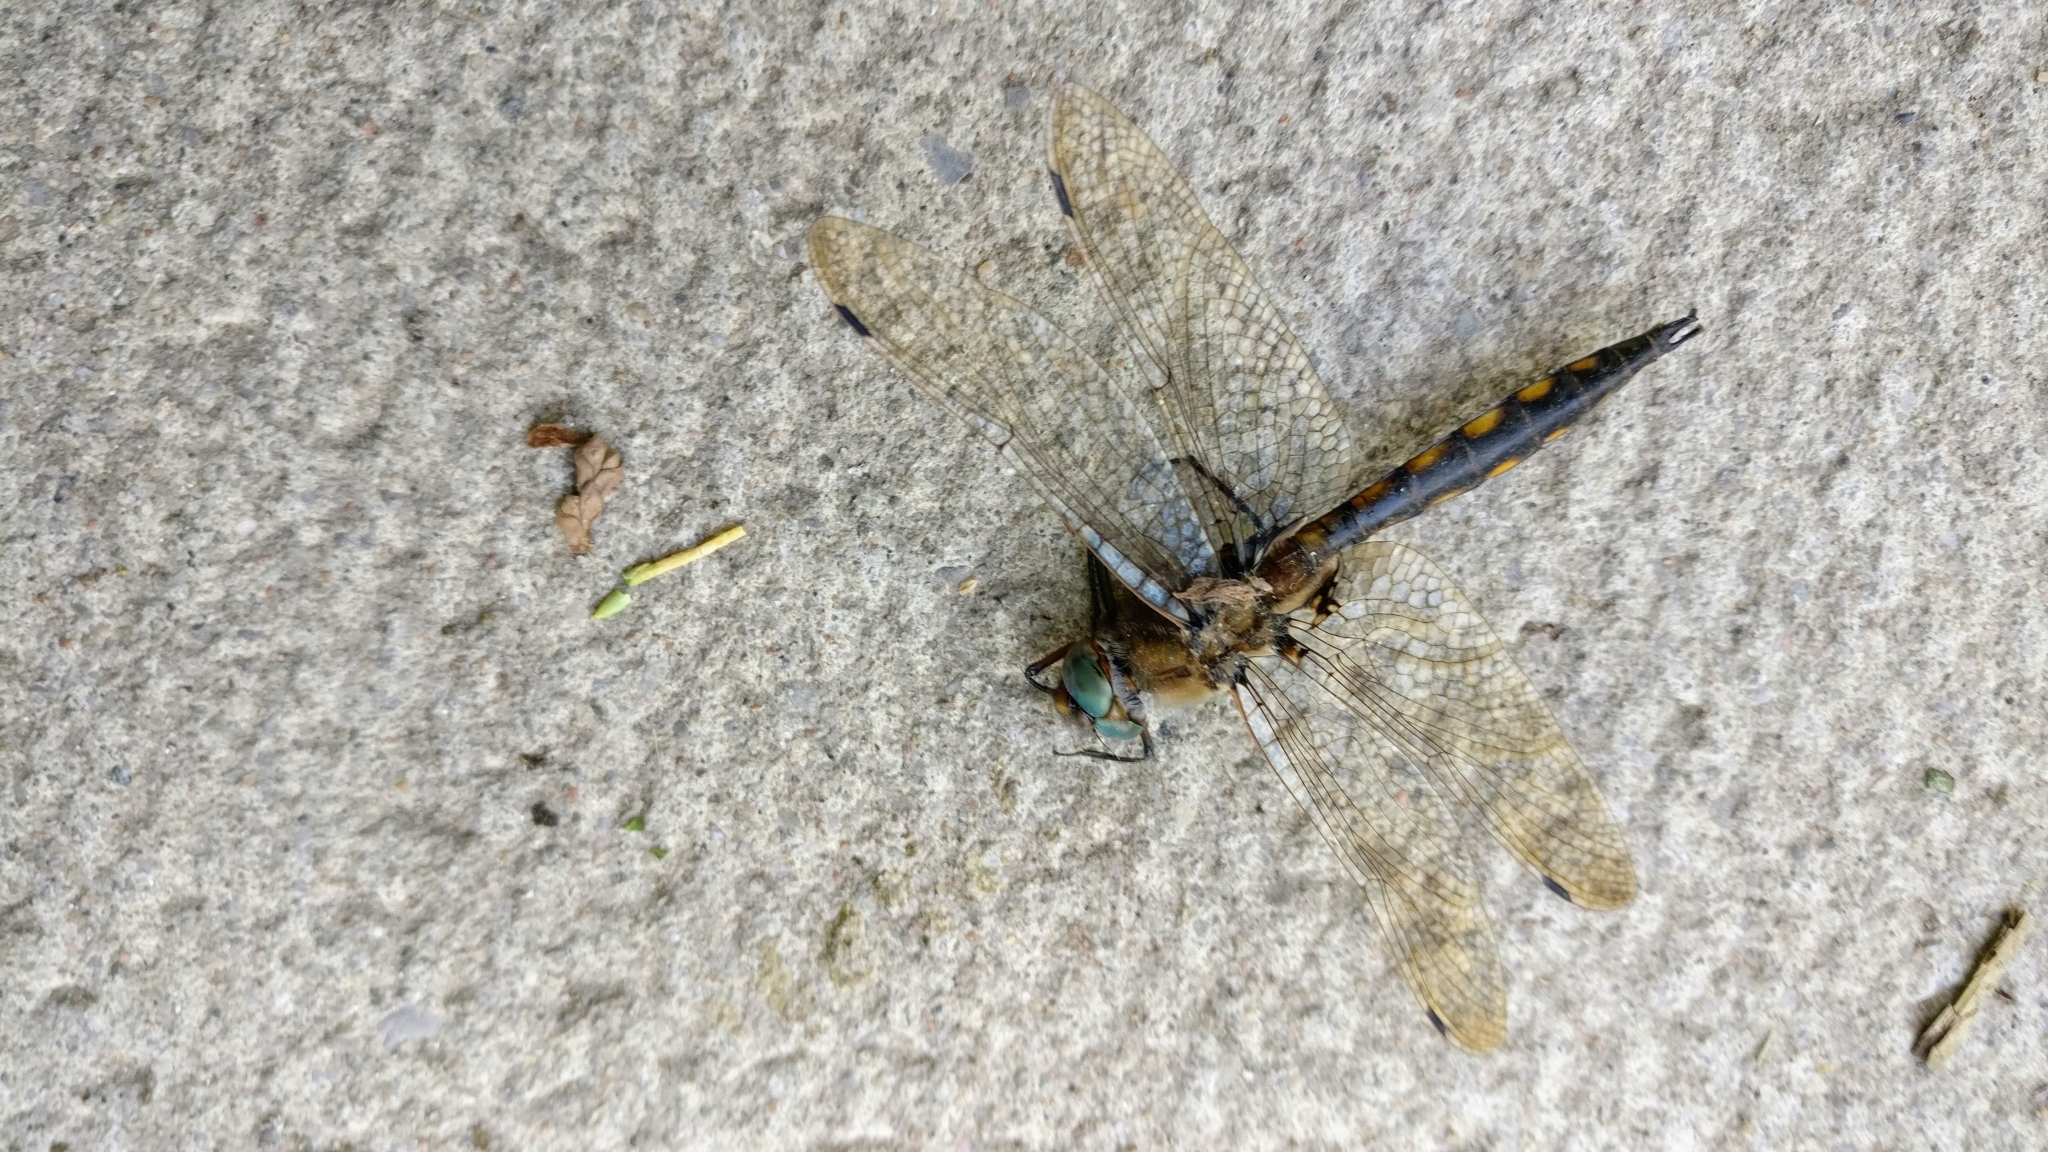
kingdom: Animalia
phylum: Arthropoda
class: Insecta
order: Odonata
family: Corduliidae
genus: Epitheca
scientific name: Epitheca canis
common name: Beaverpond baskettail
